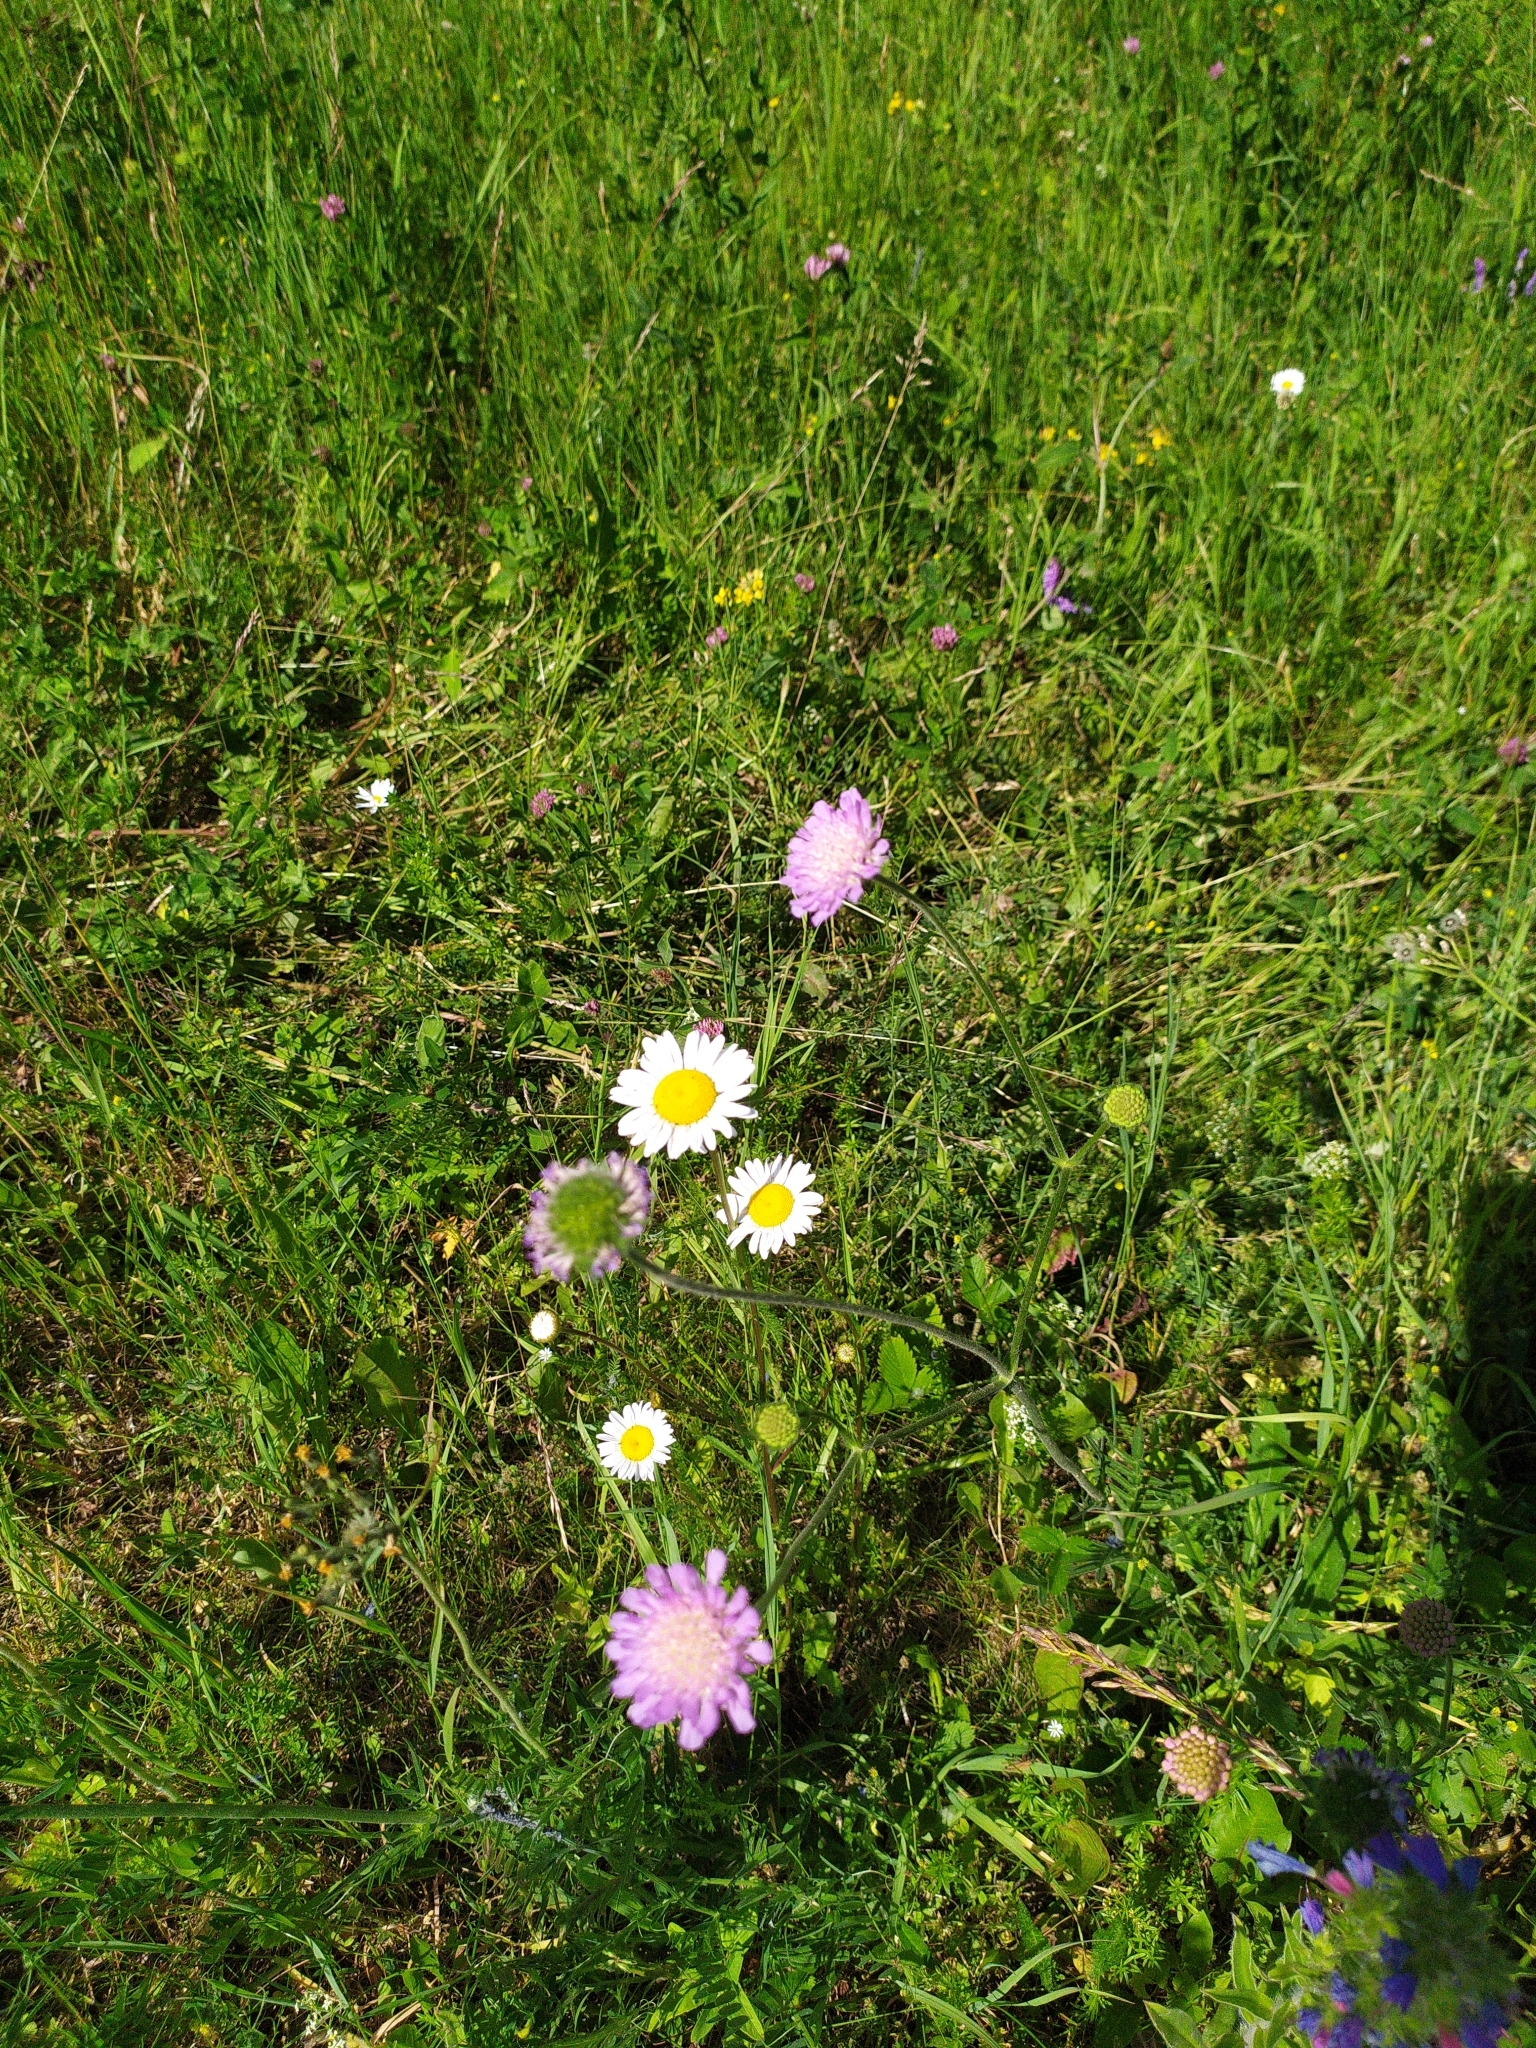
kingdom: Plantae
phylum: Tracheophyta
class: Magnoliopsida
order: Dipsacales
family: Caprifoliaceae
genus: Knautia
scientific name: Knautia arvensis
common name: Field scabiosa
